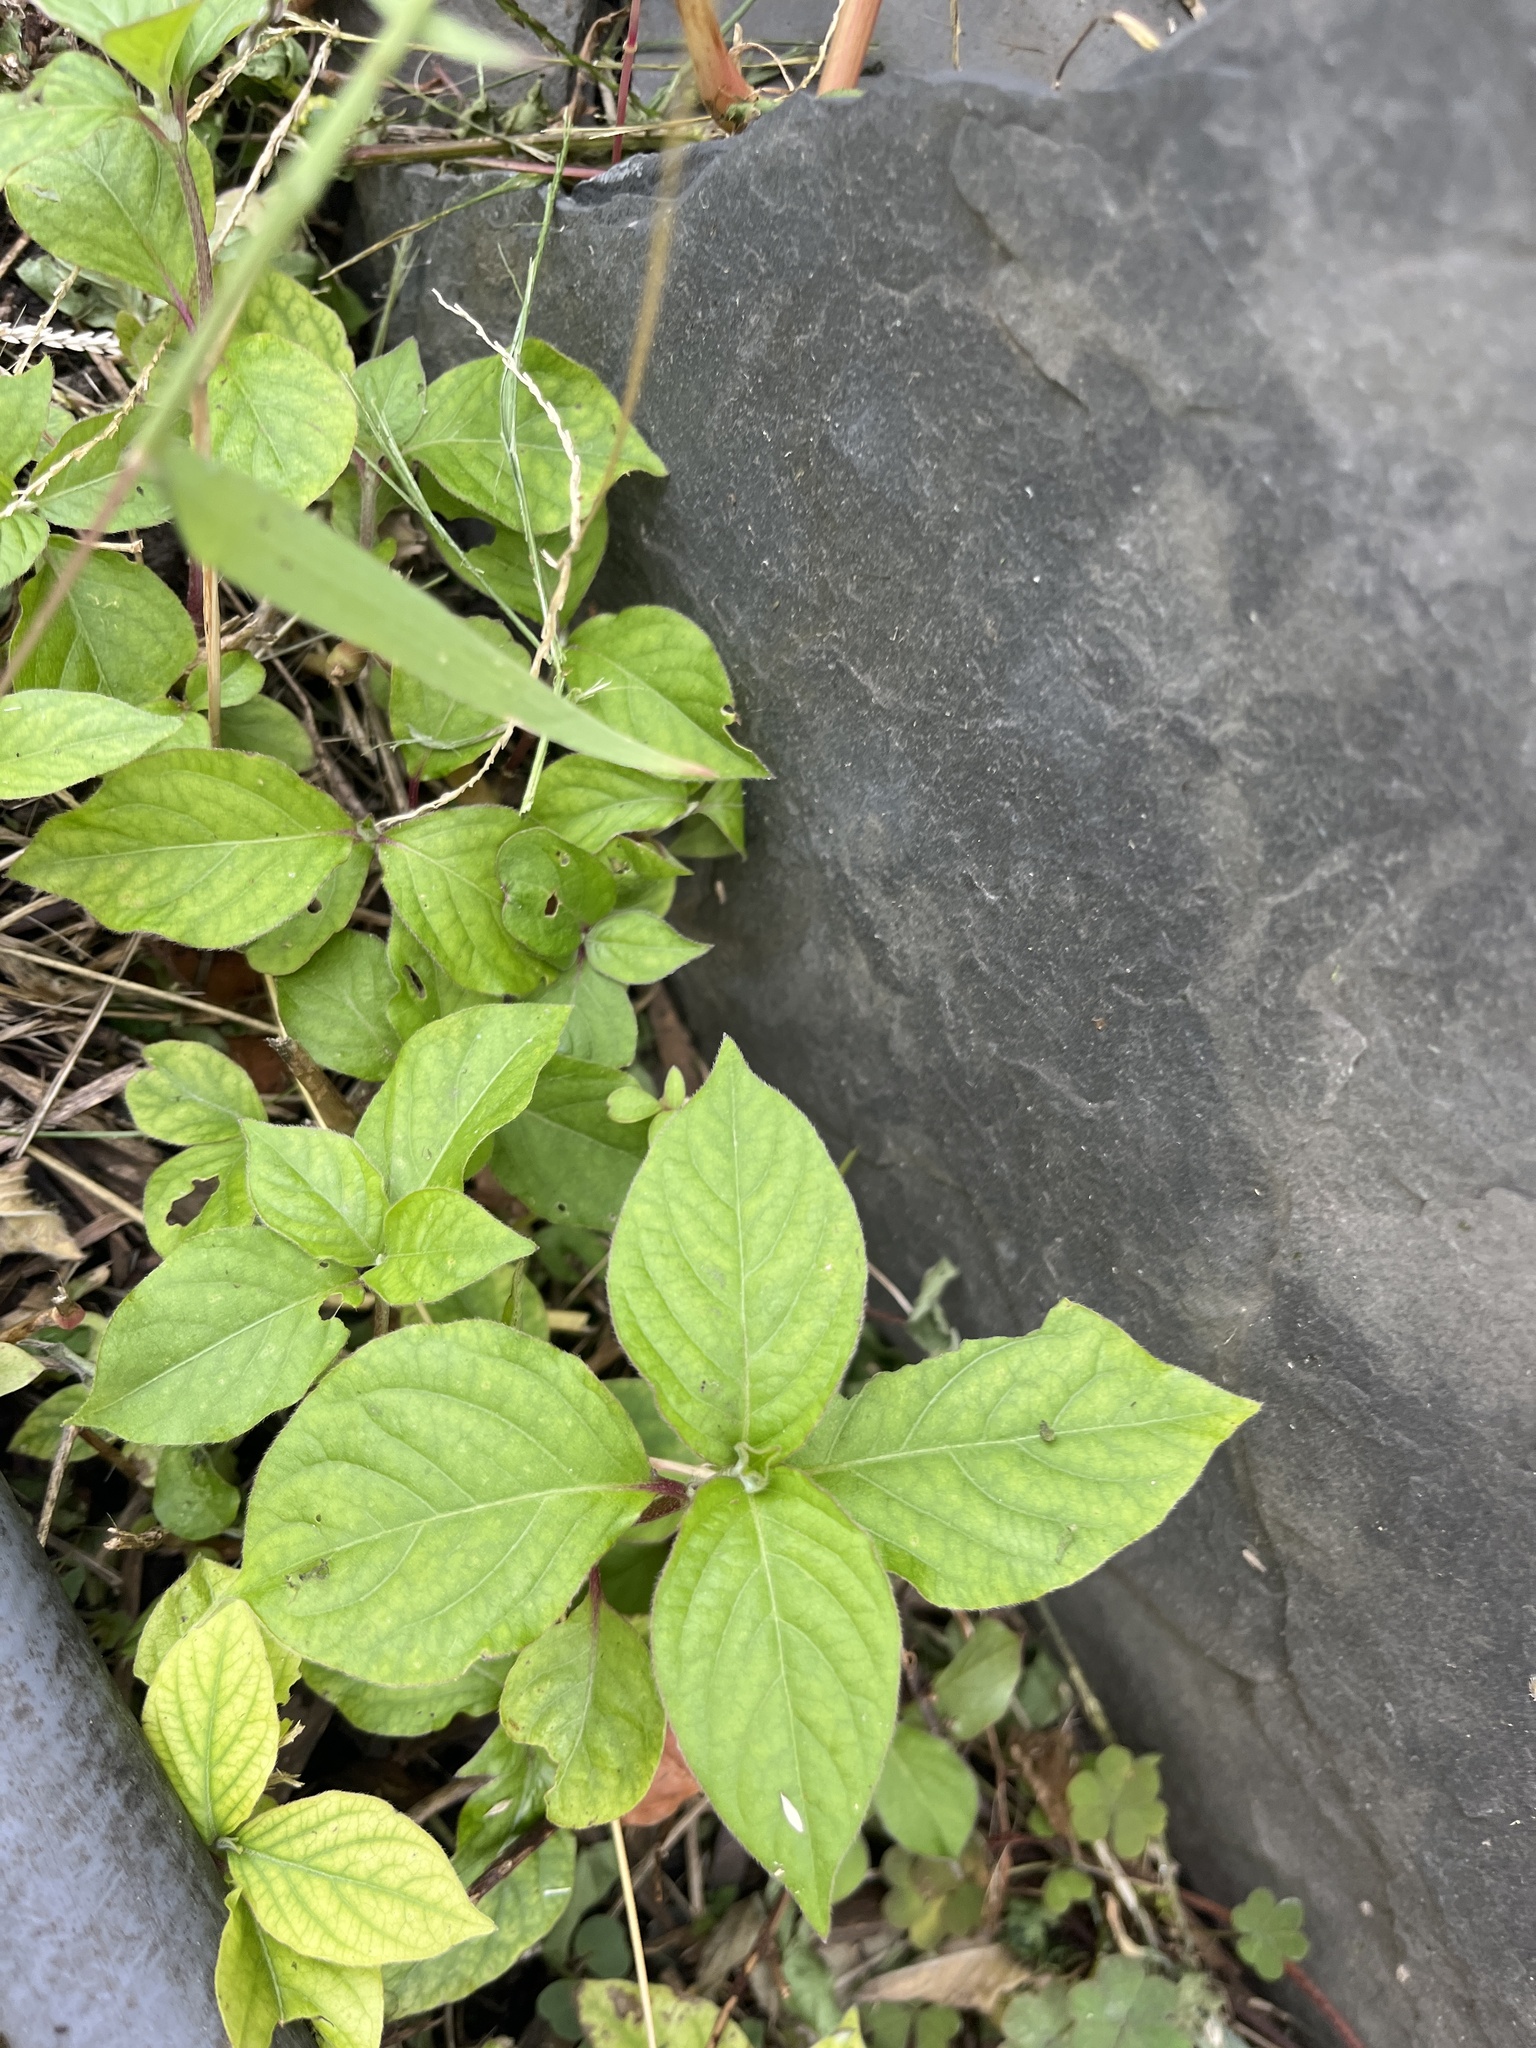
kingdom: Plantae
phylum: Tracheophyta
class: Magnoliopsida
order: Caryophyllales
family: Amaranthaceae
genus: Achyranthes
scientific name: Achyranthes bidentata
